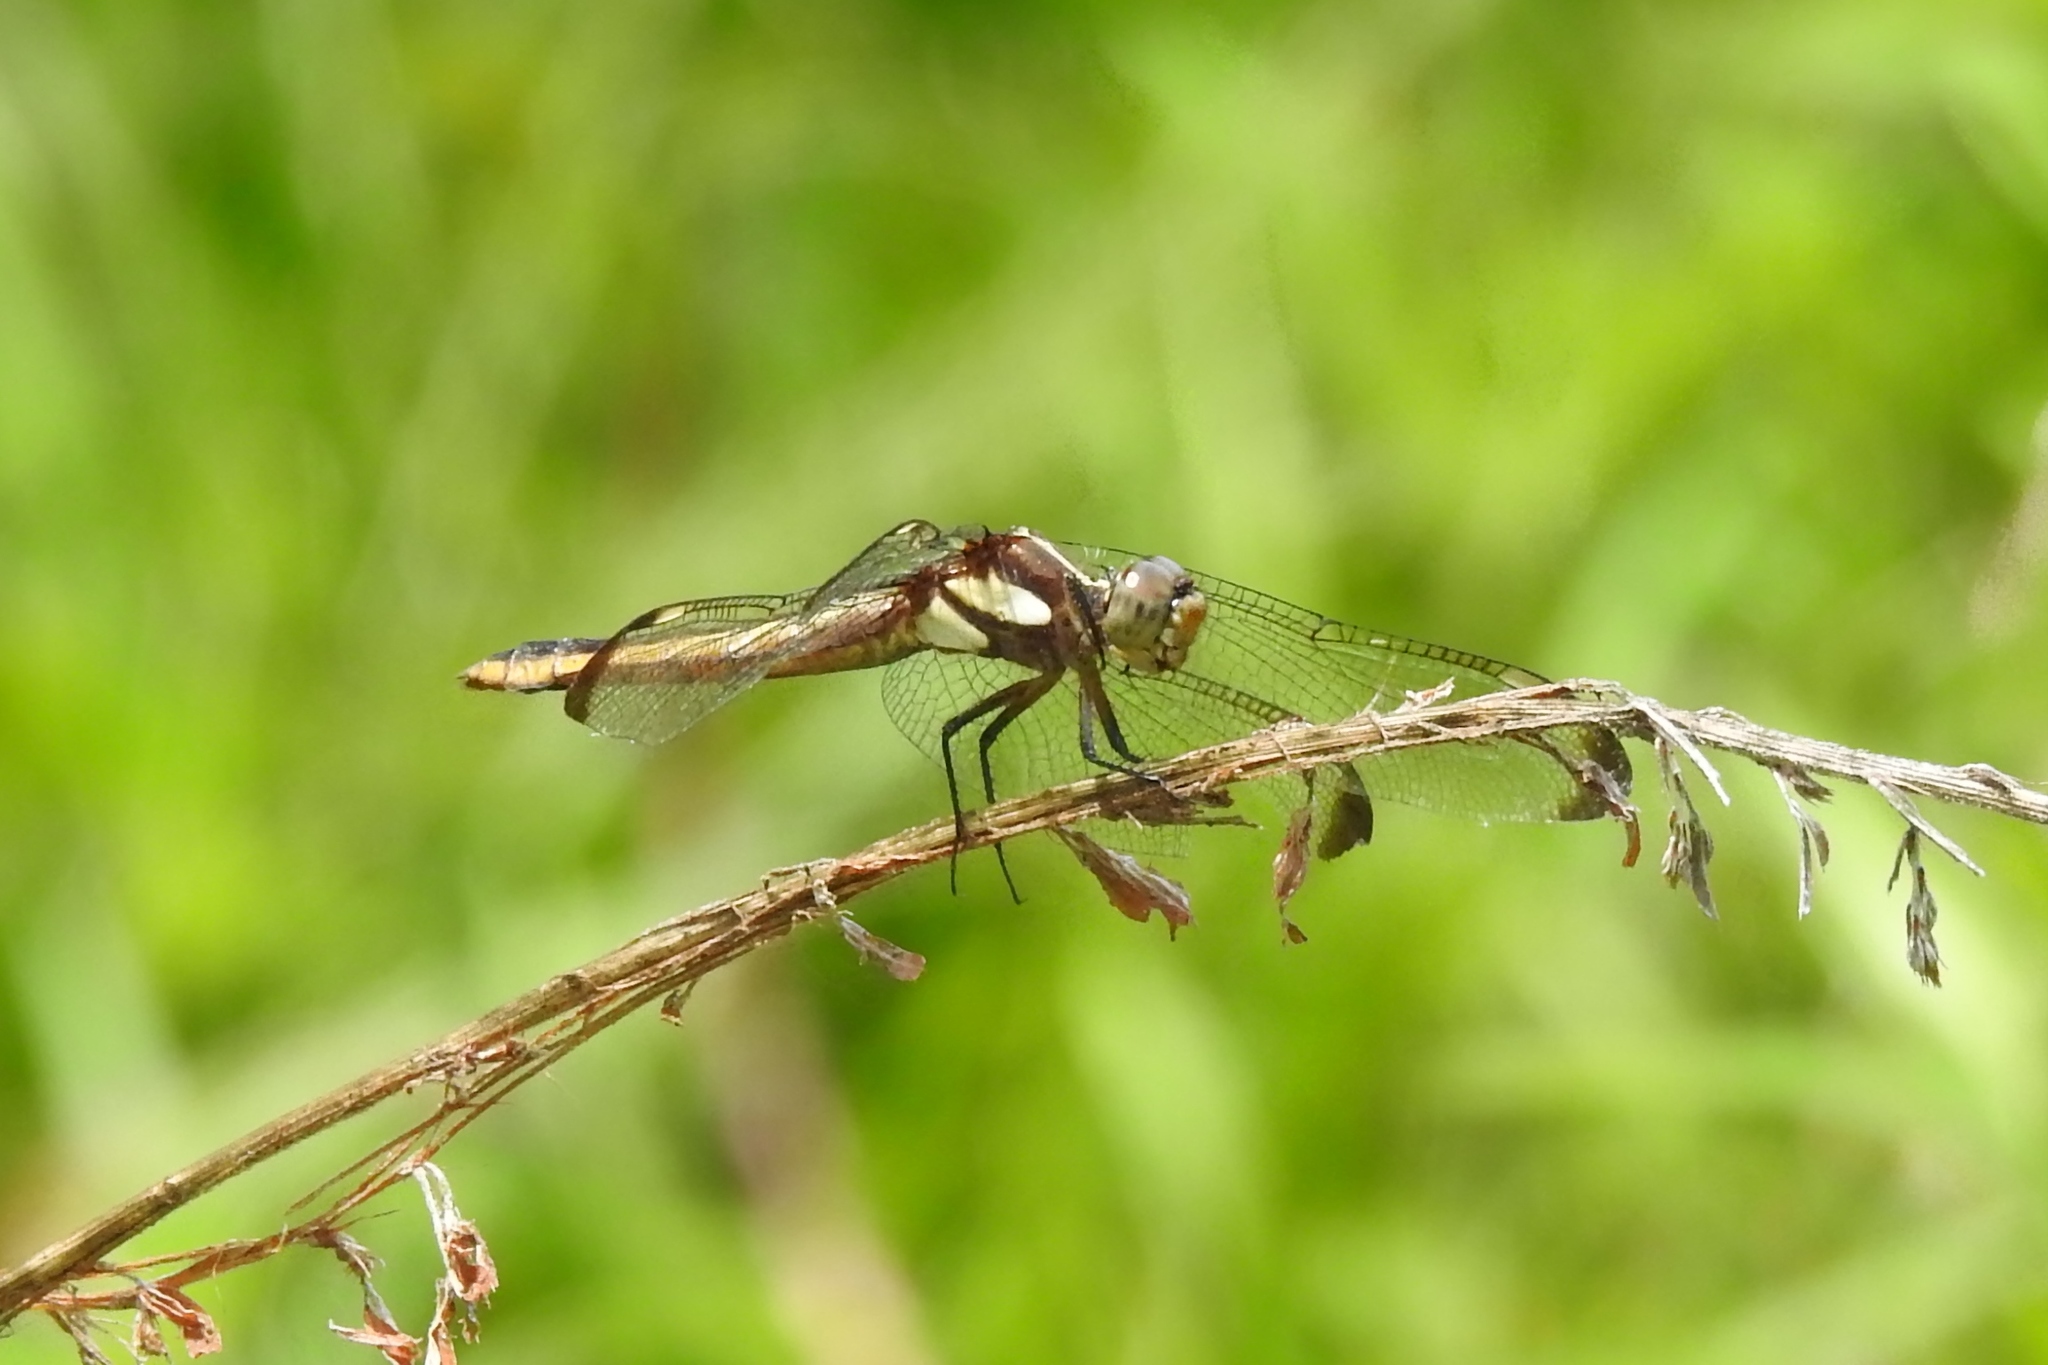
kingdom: Animalia
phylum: Arthropoda
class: Insecta
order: Odonata
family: Libellulidae
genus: Libellula
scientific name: Libellula cyanea
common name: Spangled skimmer
